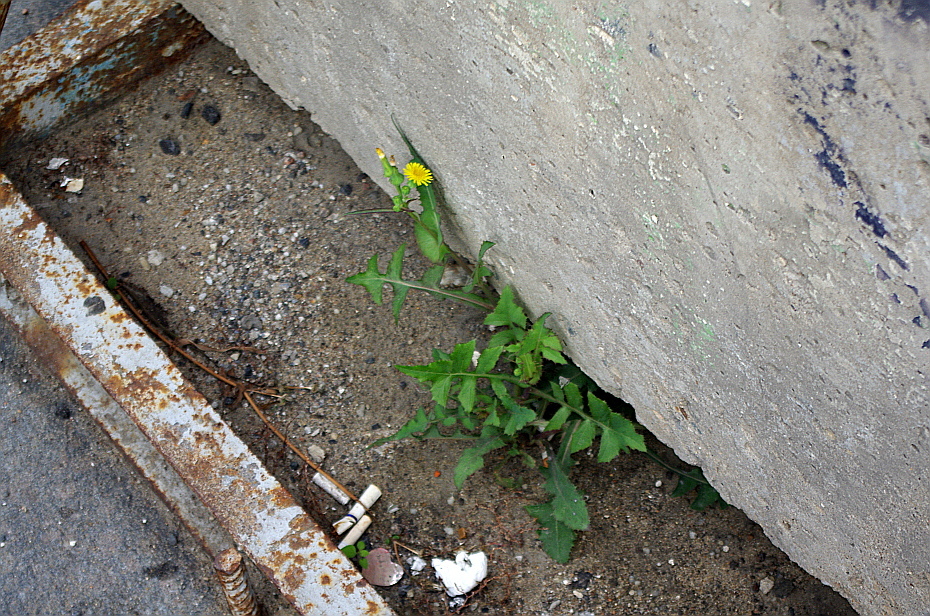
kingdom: Plantae
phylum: Tracheophyta
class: Magnoliopsida
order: Asterales
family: Asteraceae
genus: Sonchus
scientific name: Sonchus oleraceus
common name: Common sowthistle
